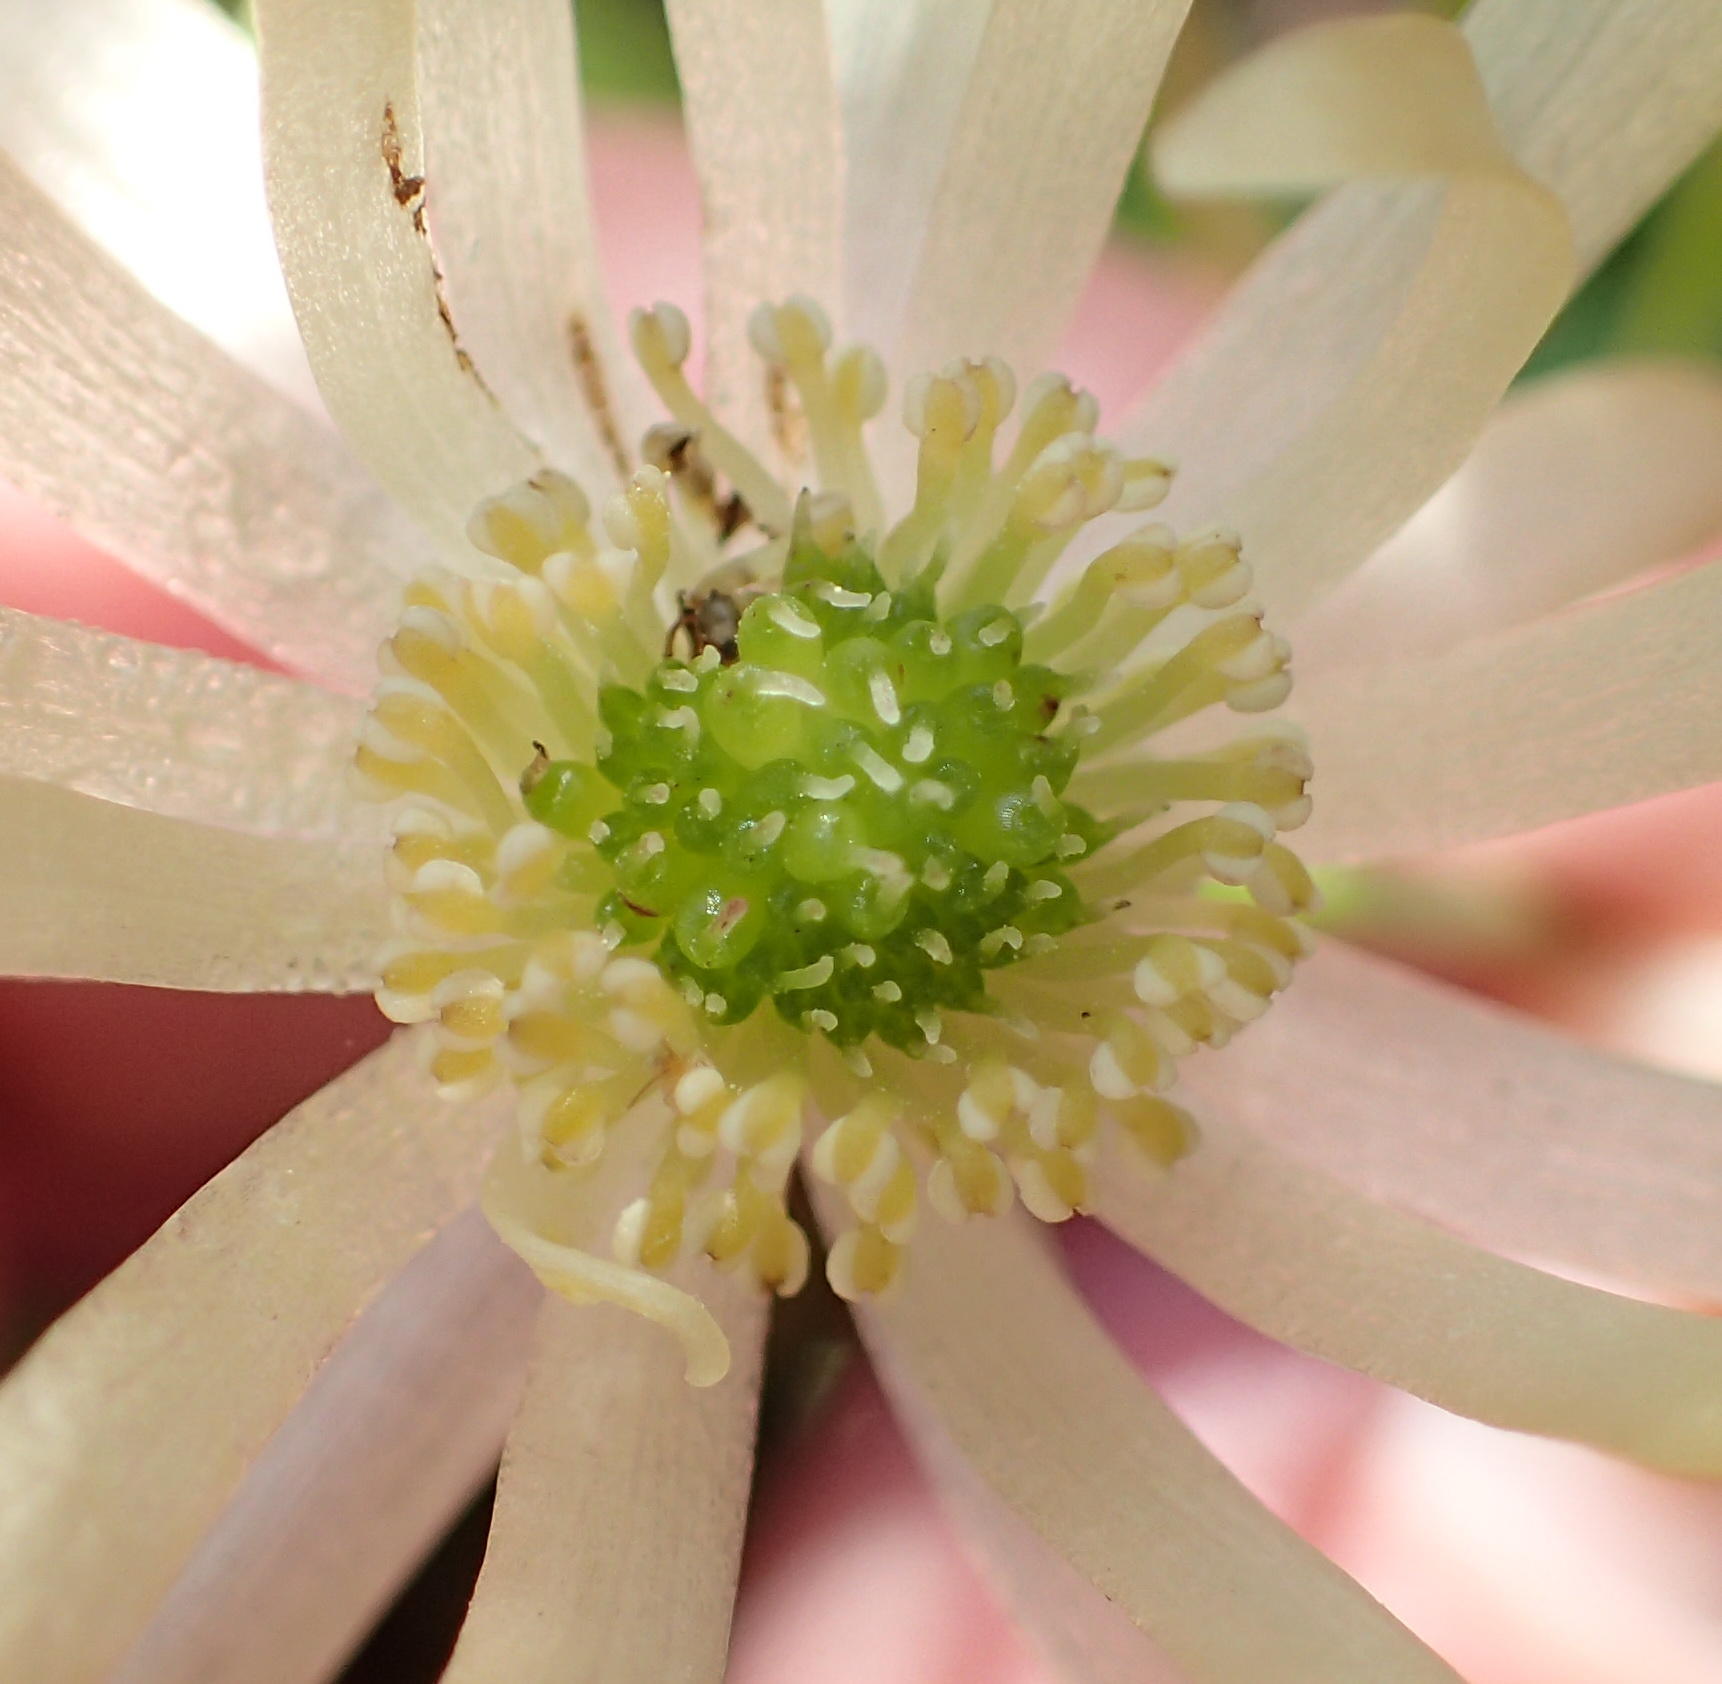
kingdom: Plantae
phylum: Tracheophyta
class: Magnoliopsida
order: Ranunculales
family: Ranunculaceae
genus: Knowltonia
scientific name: Knowltonia vesicatoria
